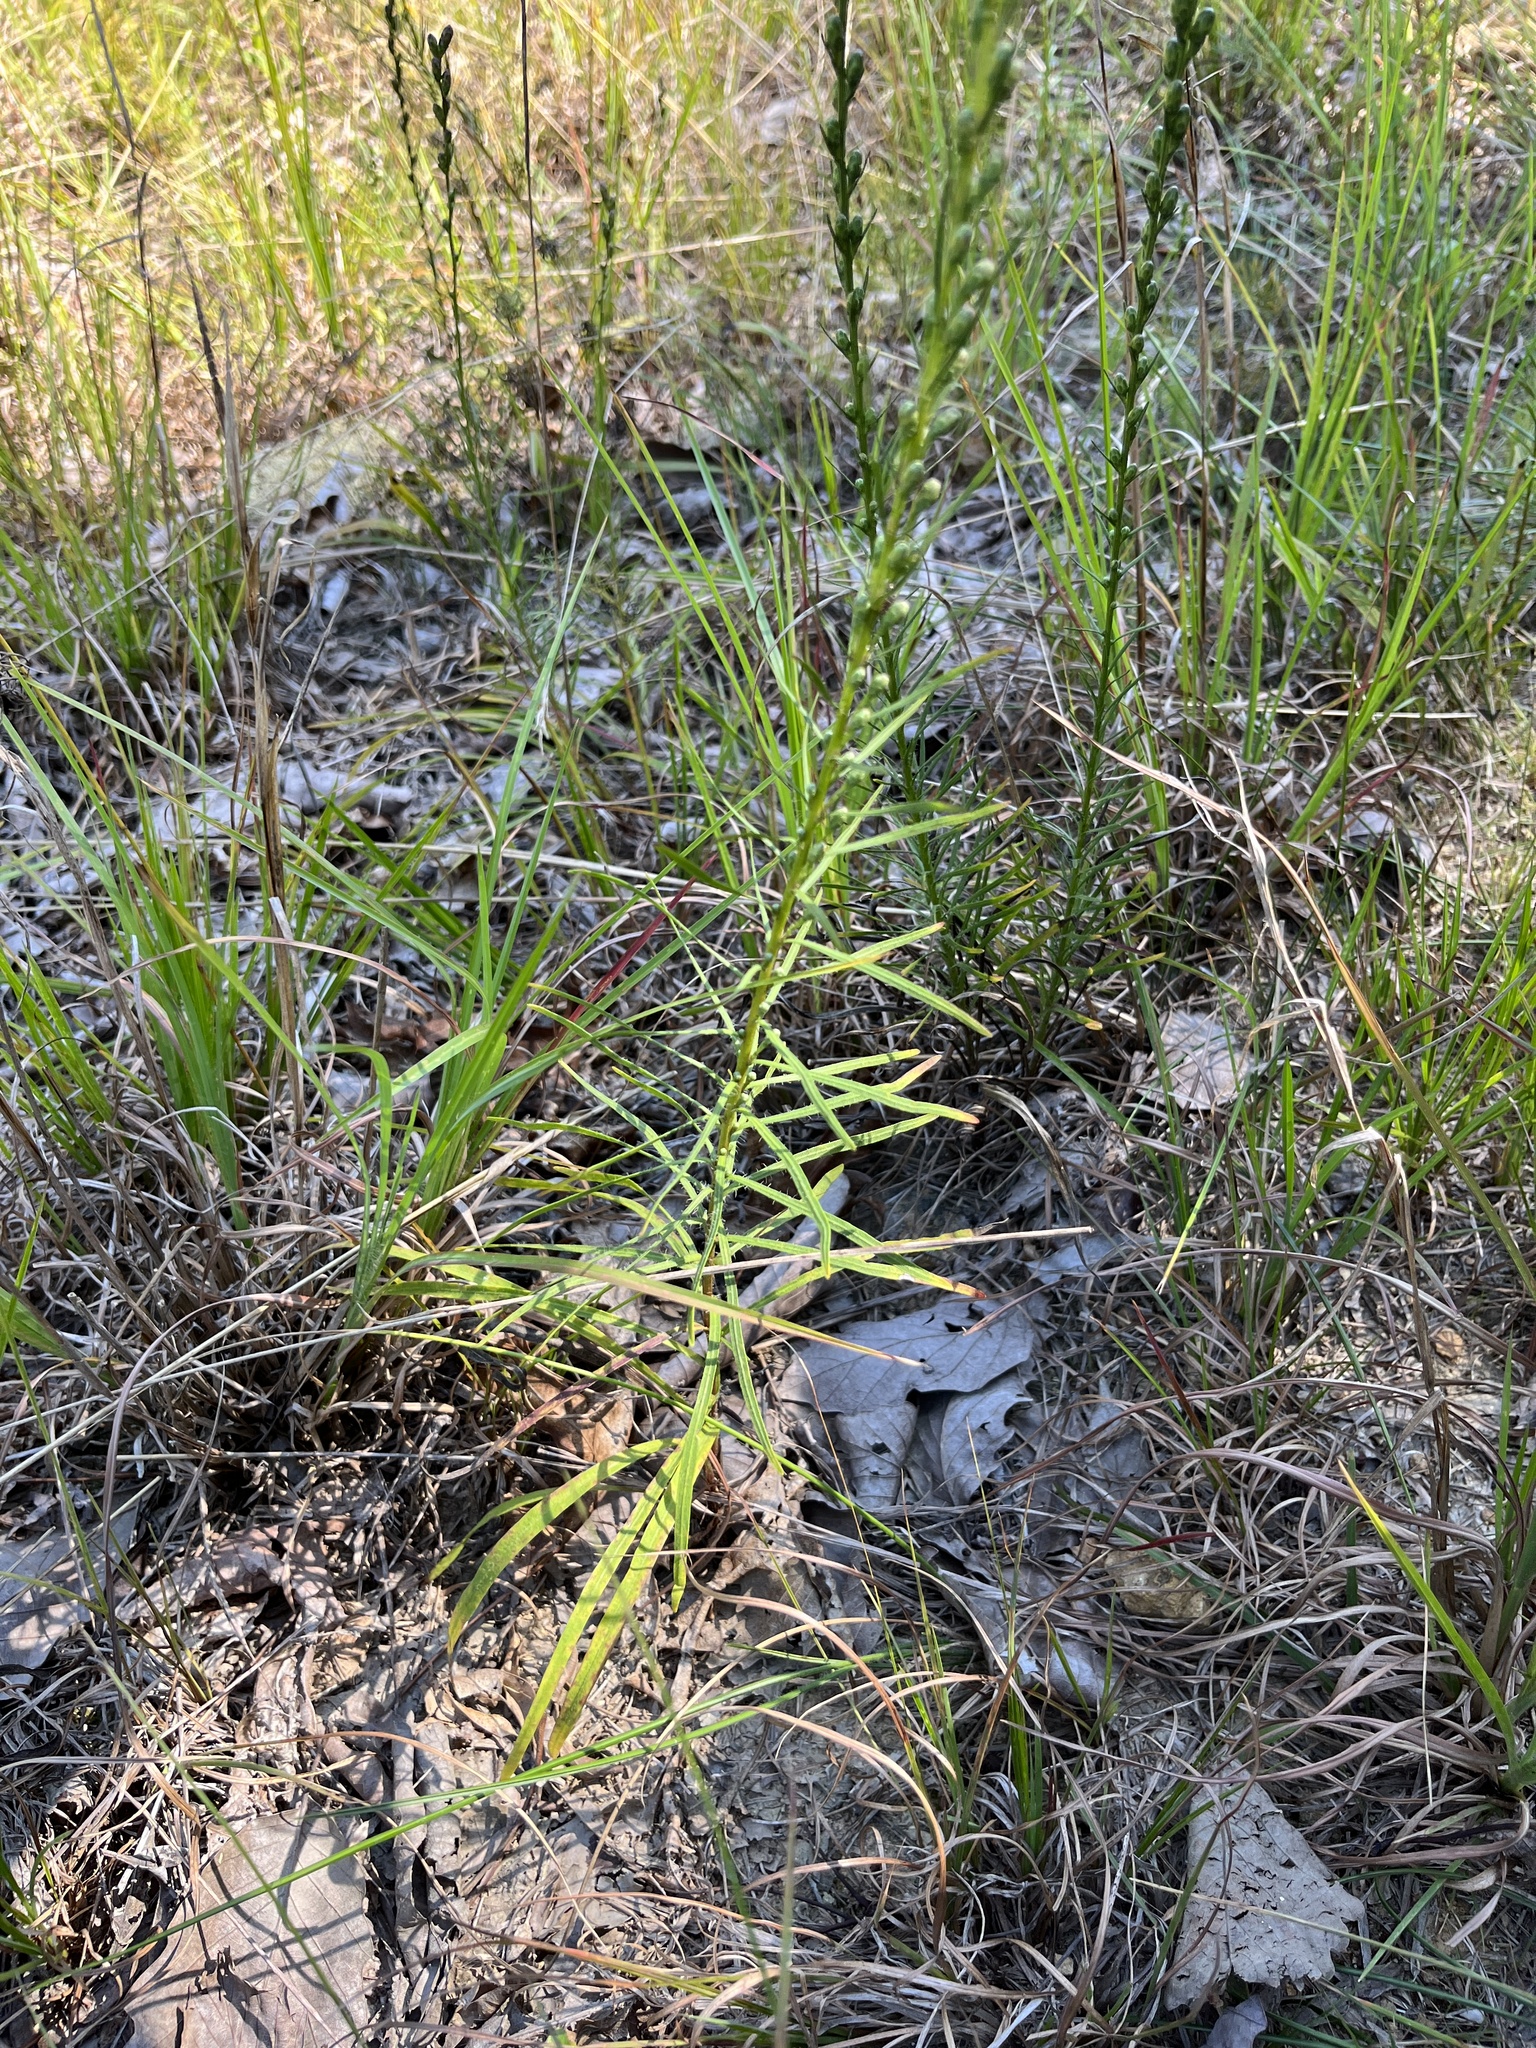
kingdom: Plantae
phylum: Tracheophyta
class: Magnoliopsida
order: Asterales
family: Asteraceae
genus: Liatris
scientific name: Liatris pilosa
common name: Grass-leaf gayfeather
